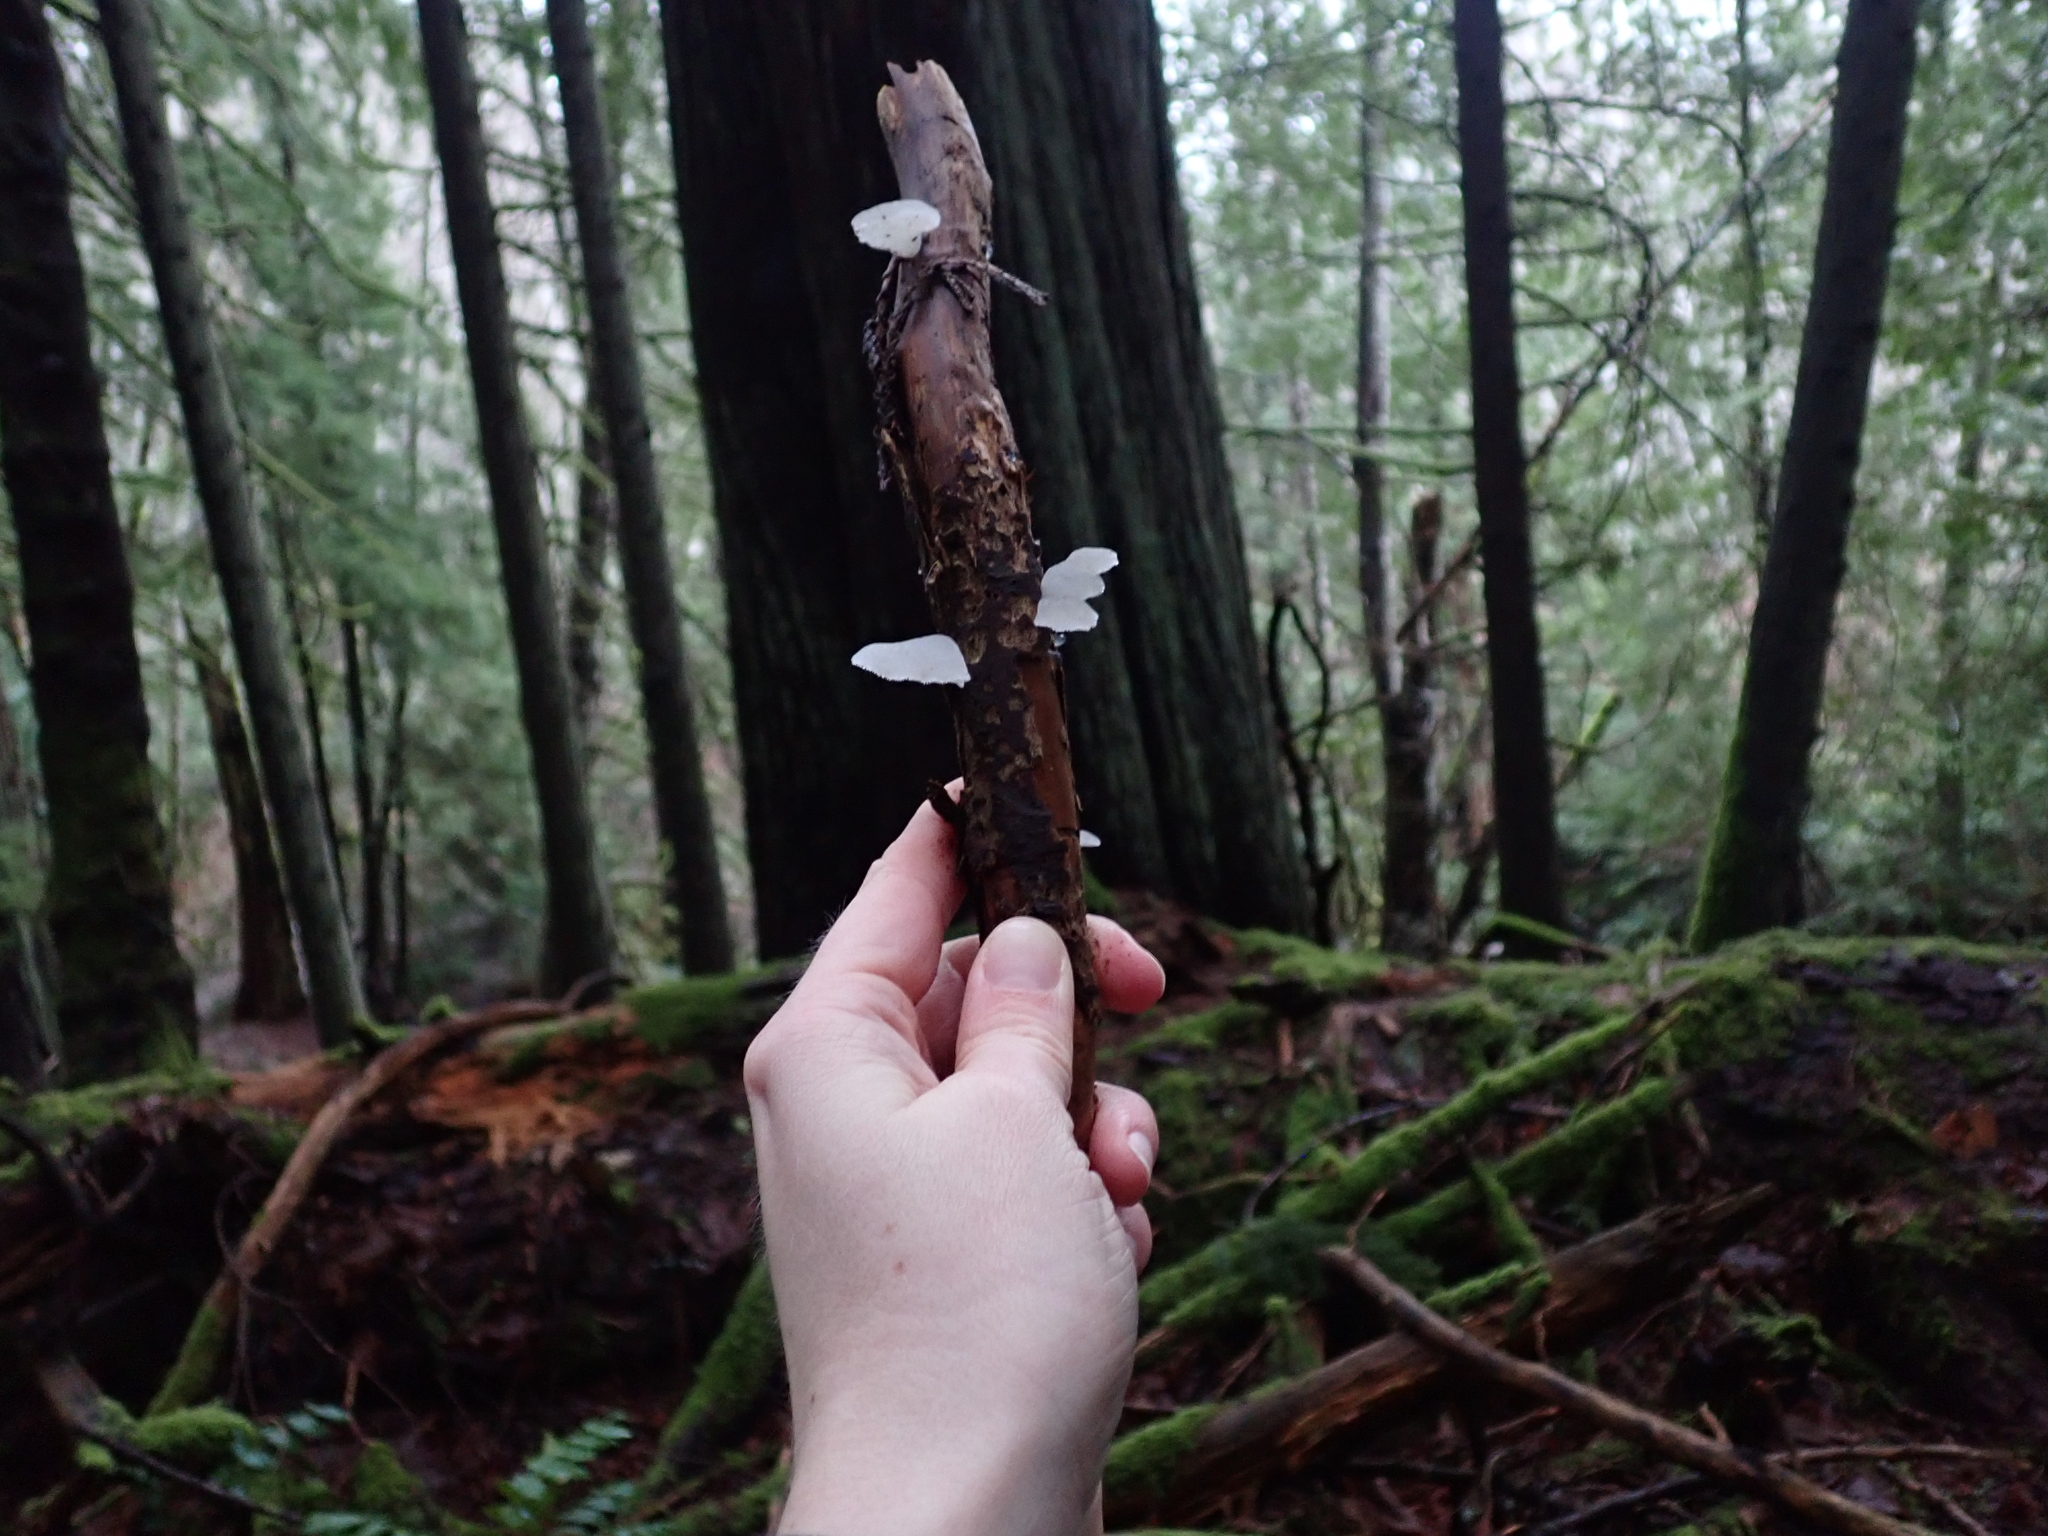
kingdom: Fungi
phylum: Basidiomycota
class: Agaricomycetes
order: Auriculariales
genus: Pseudohydnum
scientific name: Pseudohydnum gelatinosum
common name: Jelly tongue
